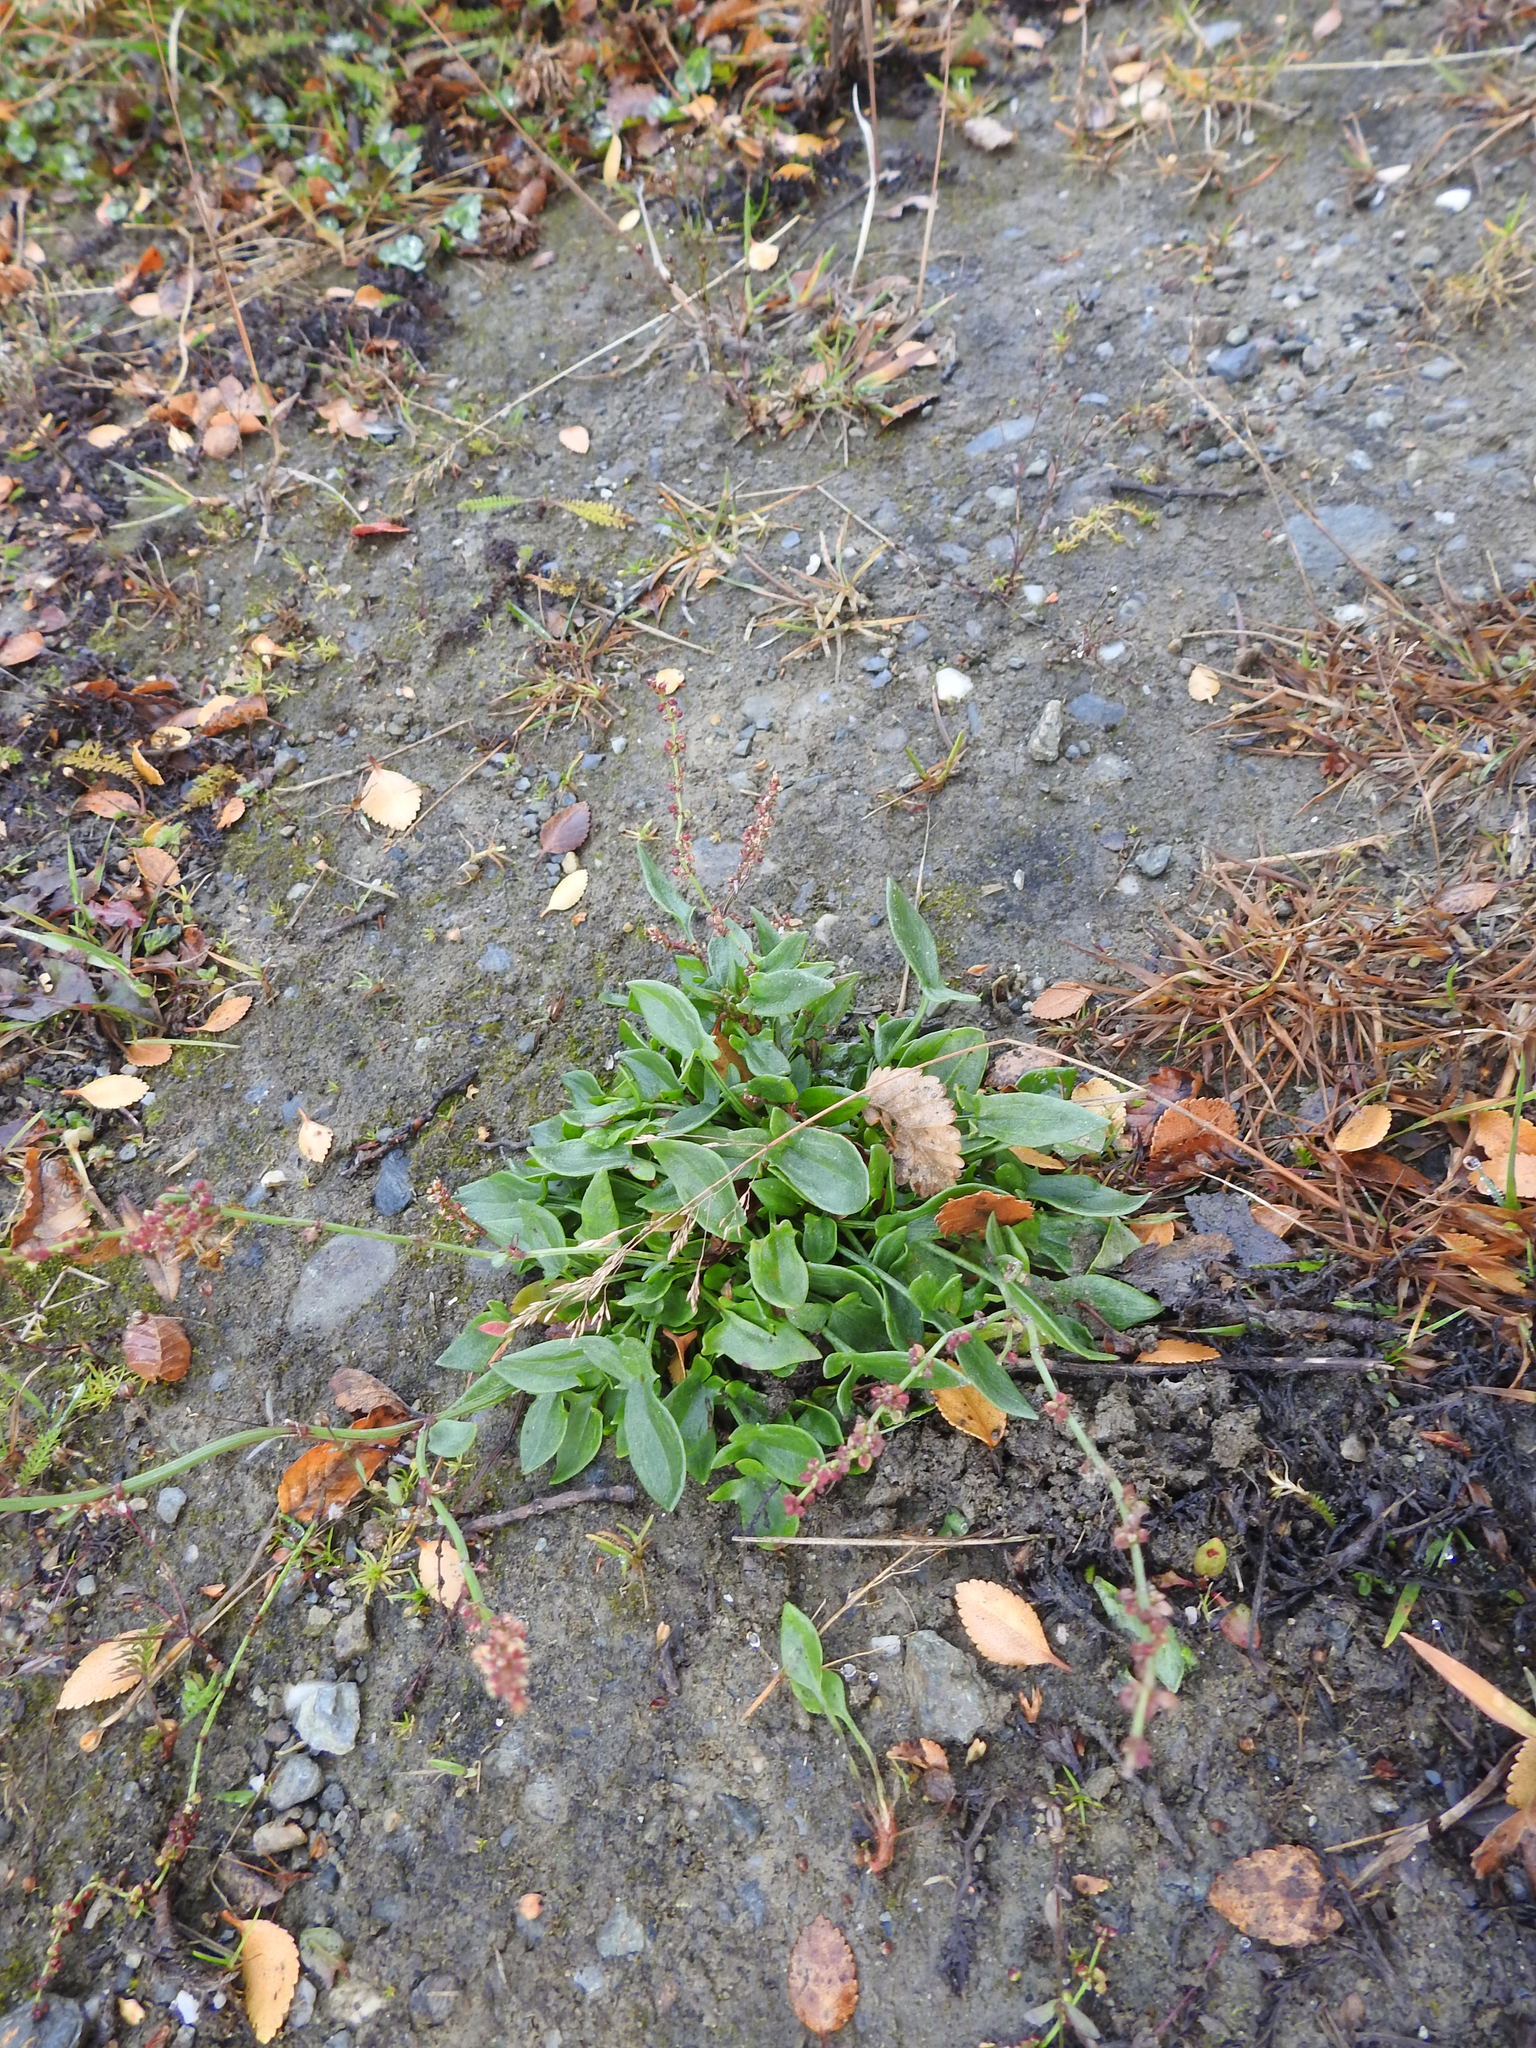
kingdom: Plantae
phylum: Tracheophyta
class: Magnoliopsida
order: Caryophyllales
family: Polygonaceae
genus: Rumex
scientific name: Rumex acetosella
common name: Common sheep sorrel
